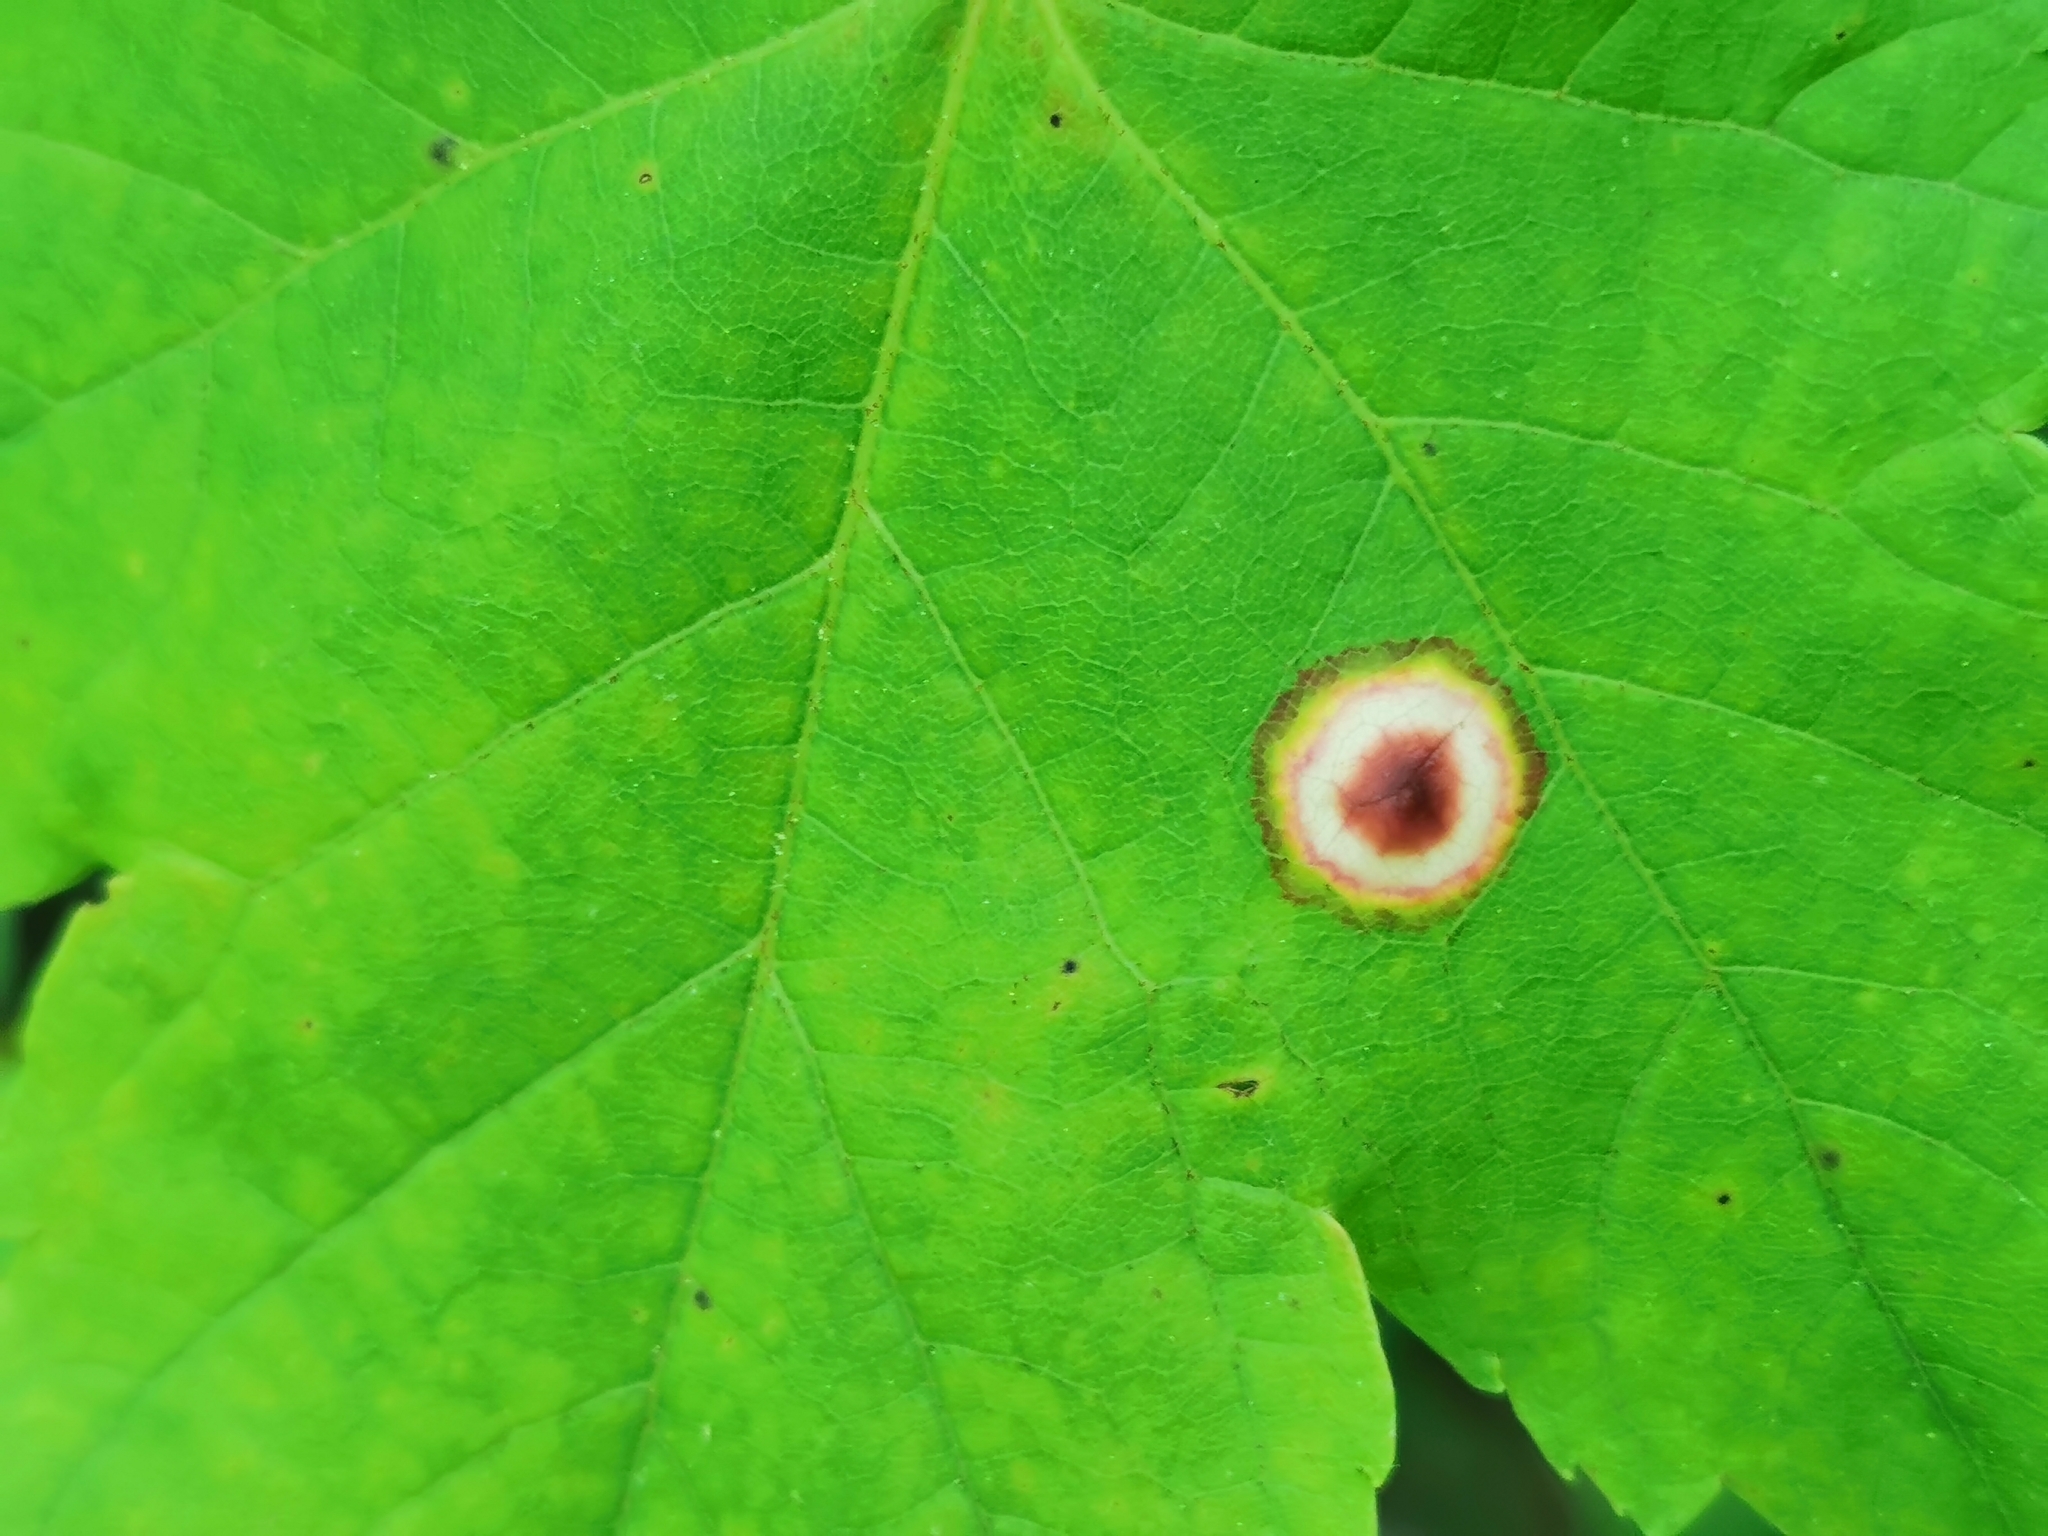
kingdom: Animalia
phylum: Arthropoda
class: Insecta
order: Diptera
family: Cecidomyiidae
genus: Acericecis
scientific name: Acericecis ocellaris
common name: Ocellate gall midge
